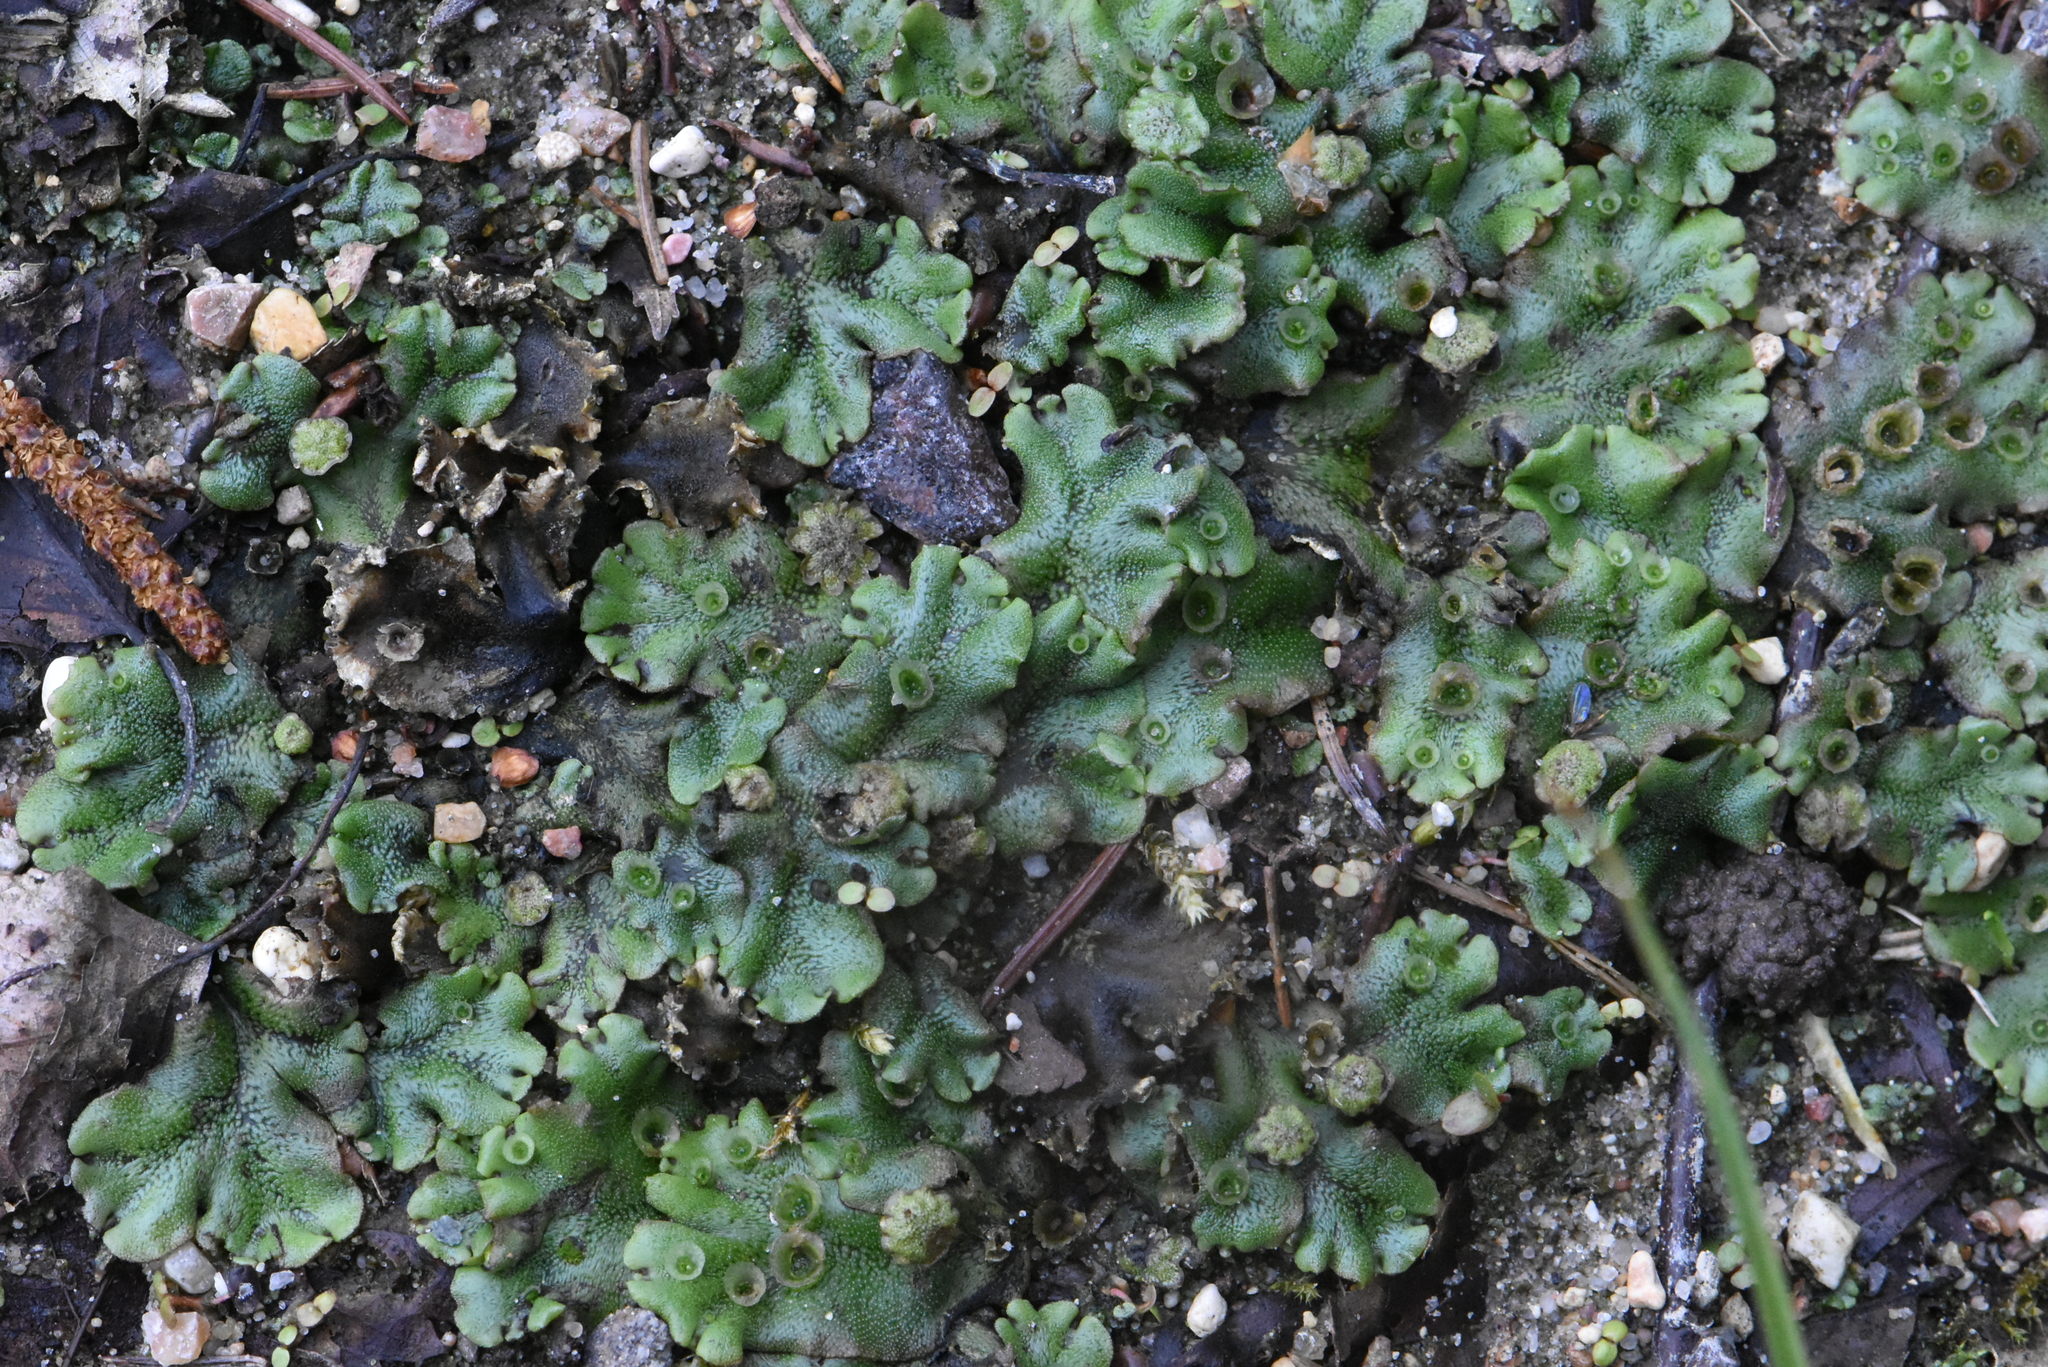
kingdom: Plantae
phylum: Marchantiophyta
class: Marchantiopsida
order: Marchantiales
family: Marchantiaceae
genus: Marchantia
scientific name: Marchantia polymorpha
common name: Common liverwort
